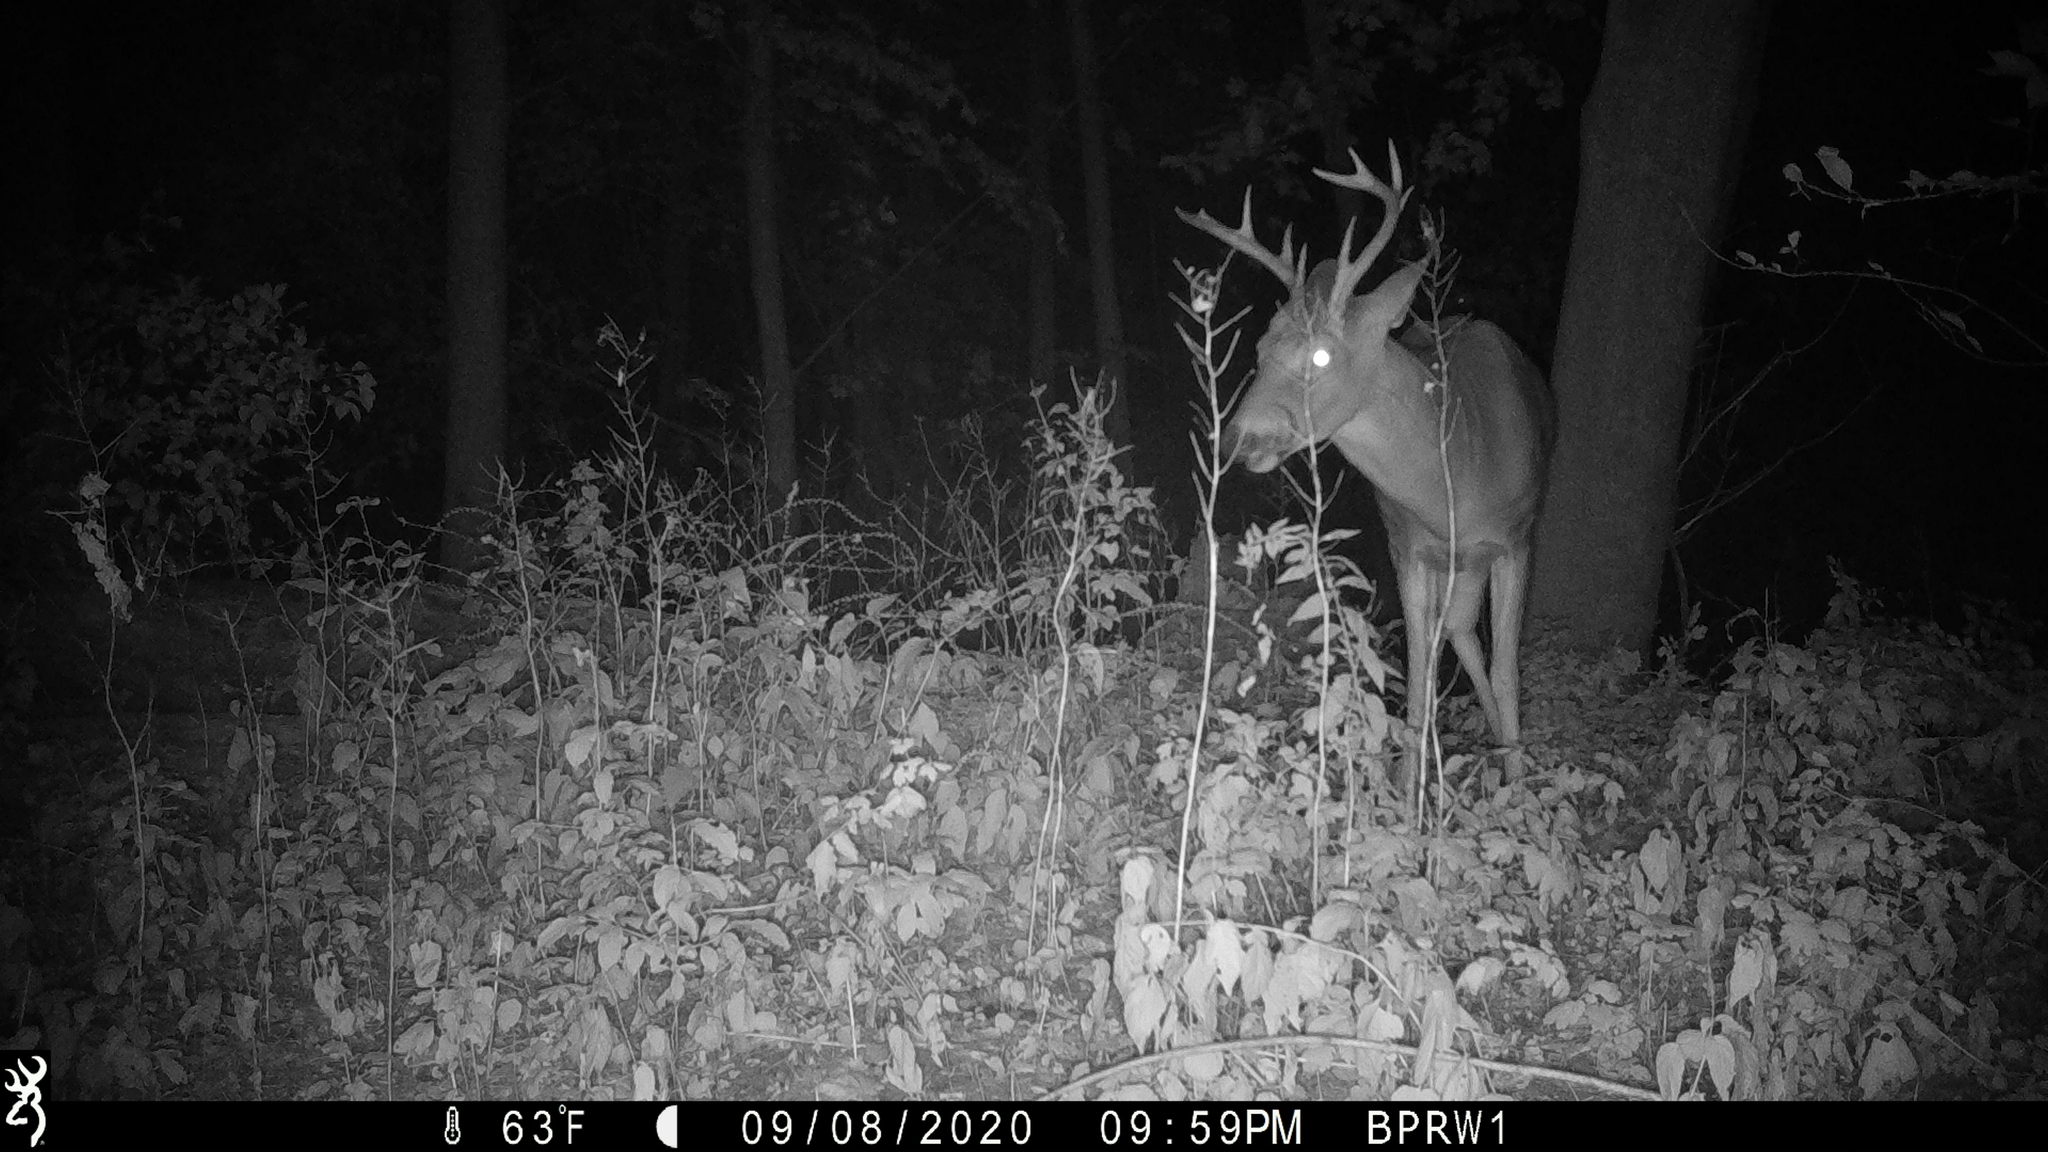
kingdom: Animalia
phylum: Chordata
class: Mammalia
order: Artiodactyla
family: Cervidae
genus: Odocoileus
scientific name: Odocoileus virginianus
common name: White-tailed deer
